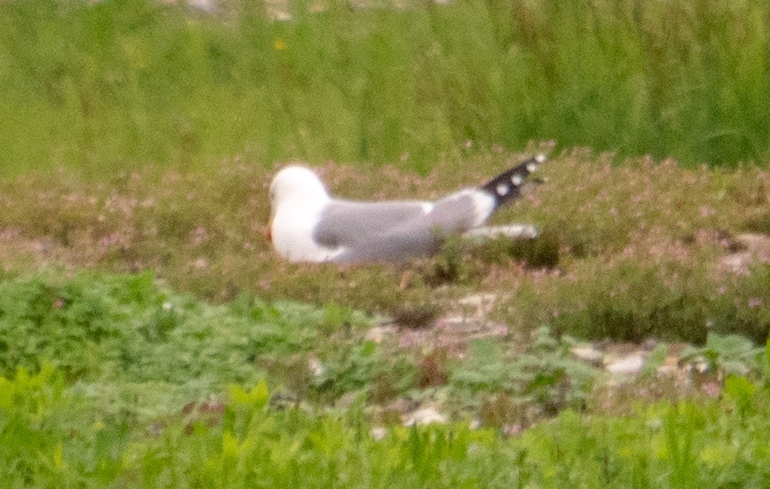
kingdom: Animalia
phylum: Chordata
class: Aves
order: Charadriiformes
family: Laridae
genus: Larus
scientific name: Larus michahellis
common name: Yellow-legged gull
